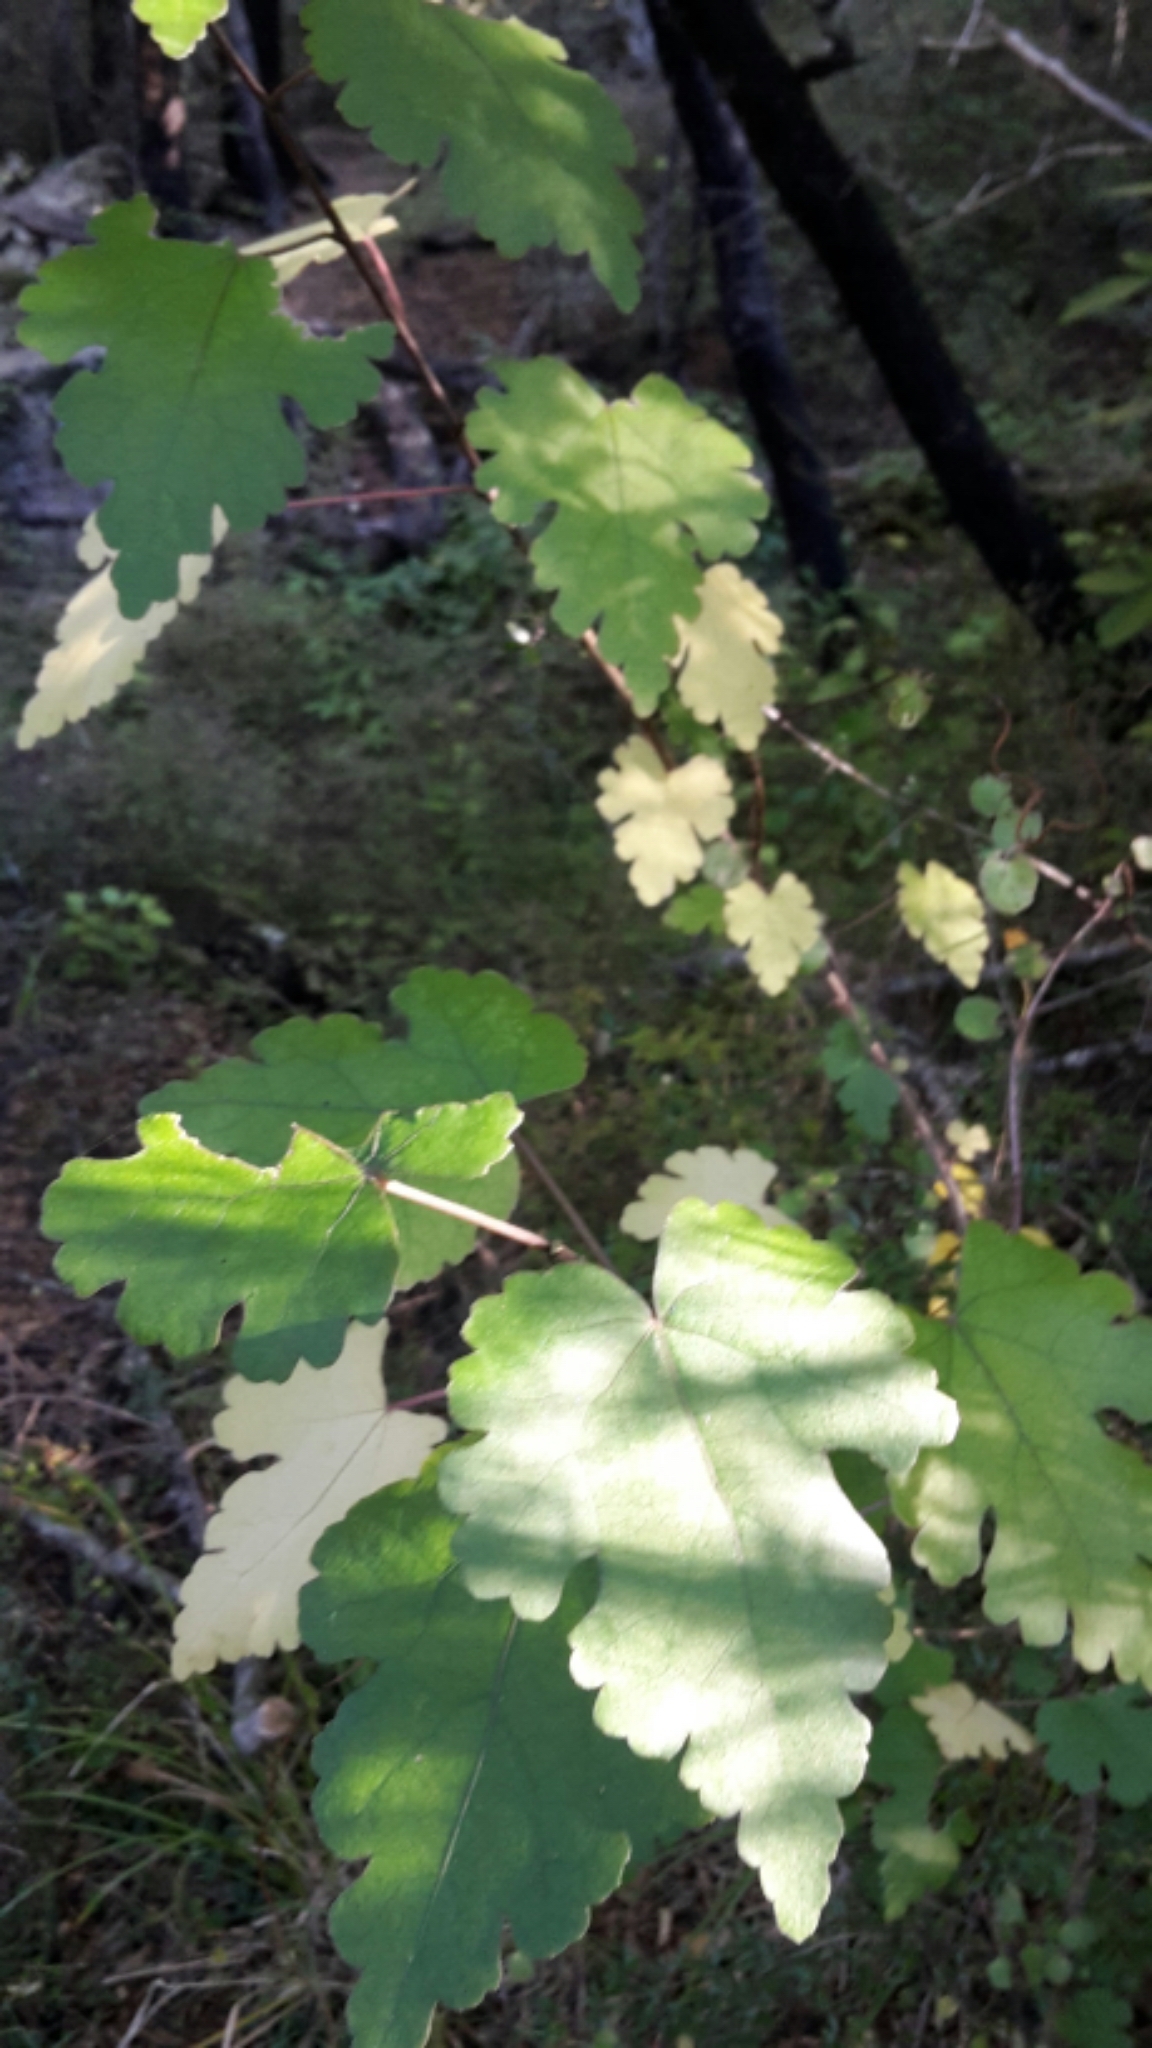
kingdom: Plantae
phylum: Tracheophyta
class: Magnoliopsida
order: Malvales
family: Malvaceae
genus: Hoheria
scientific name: Hoheria lyallii
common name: Lacebark
